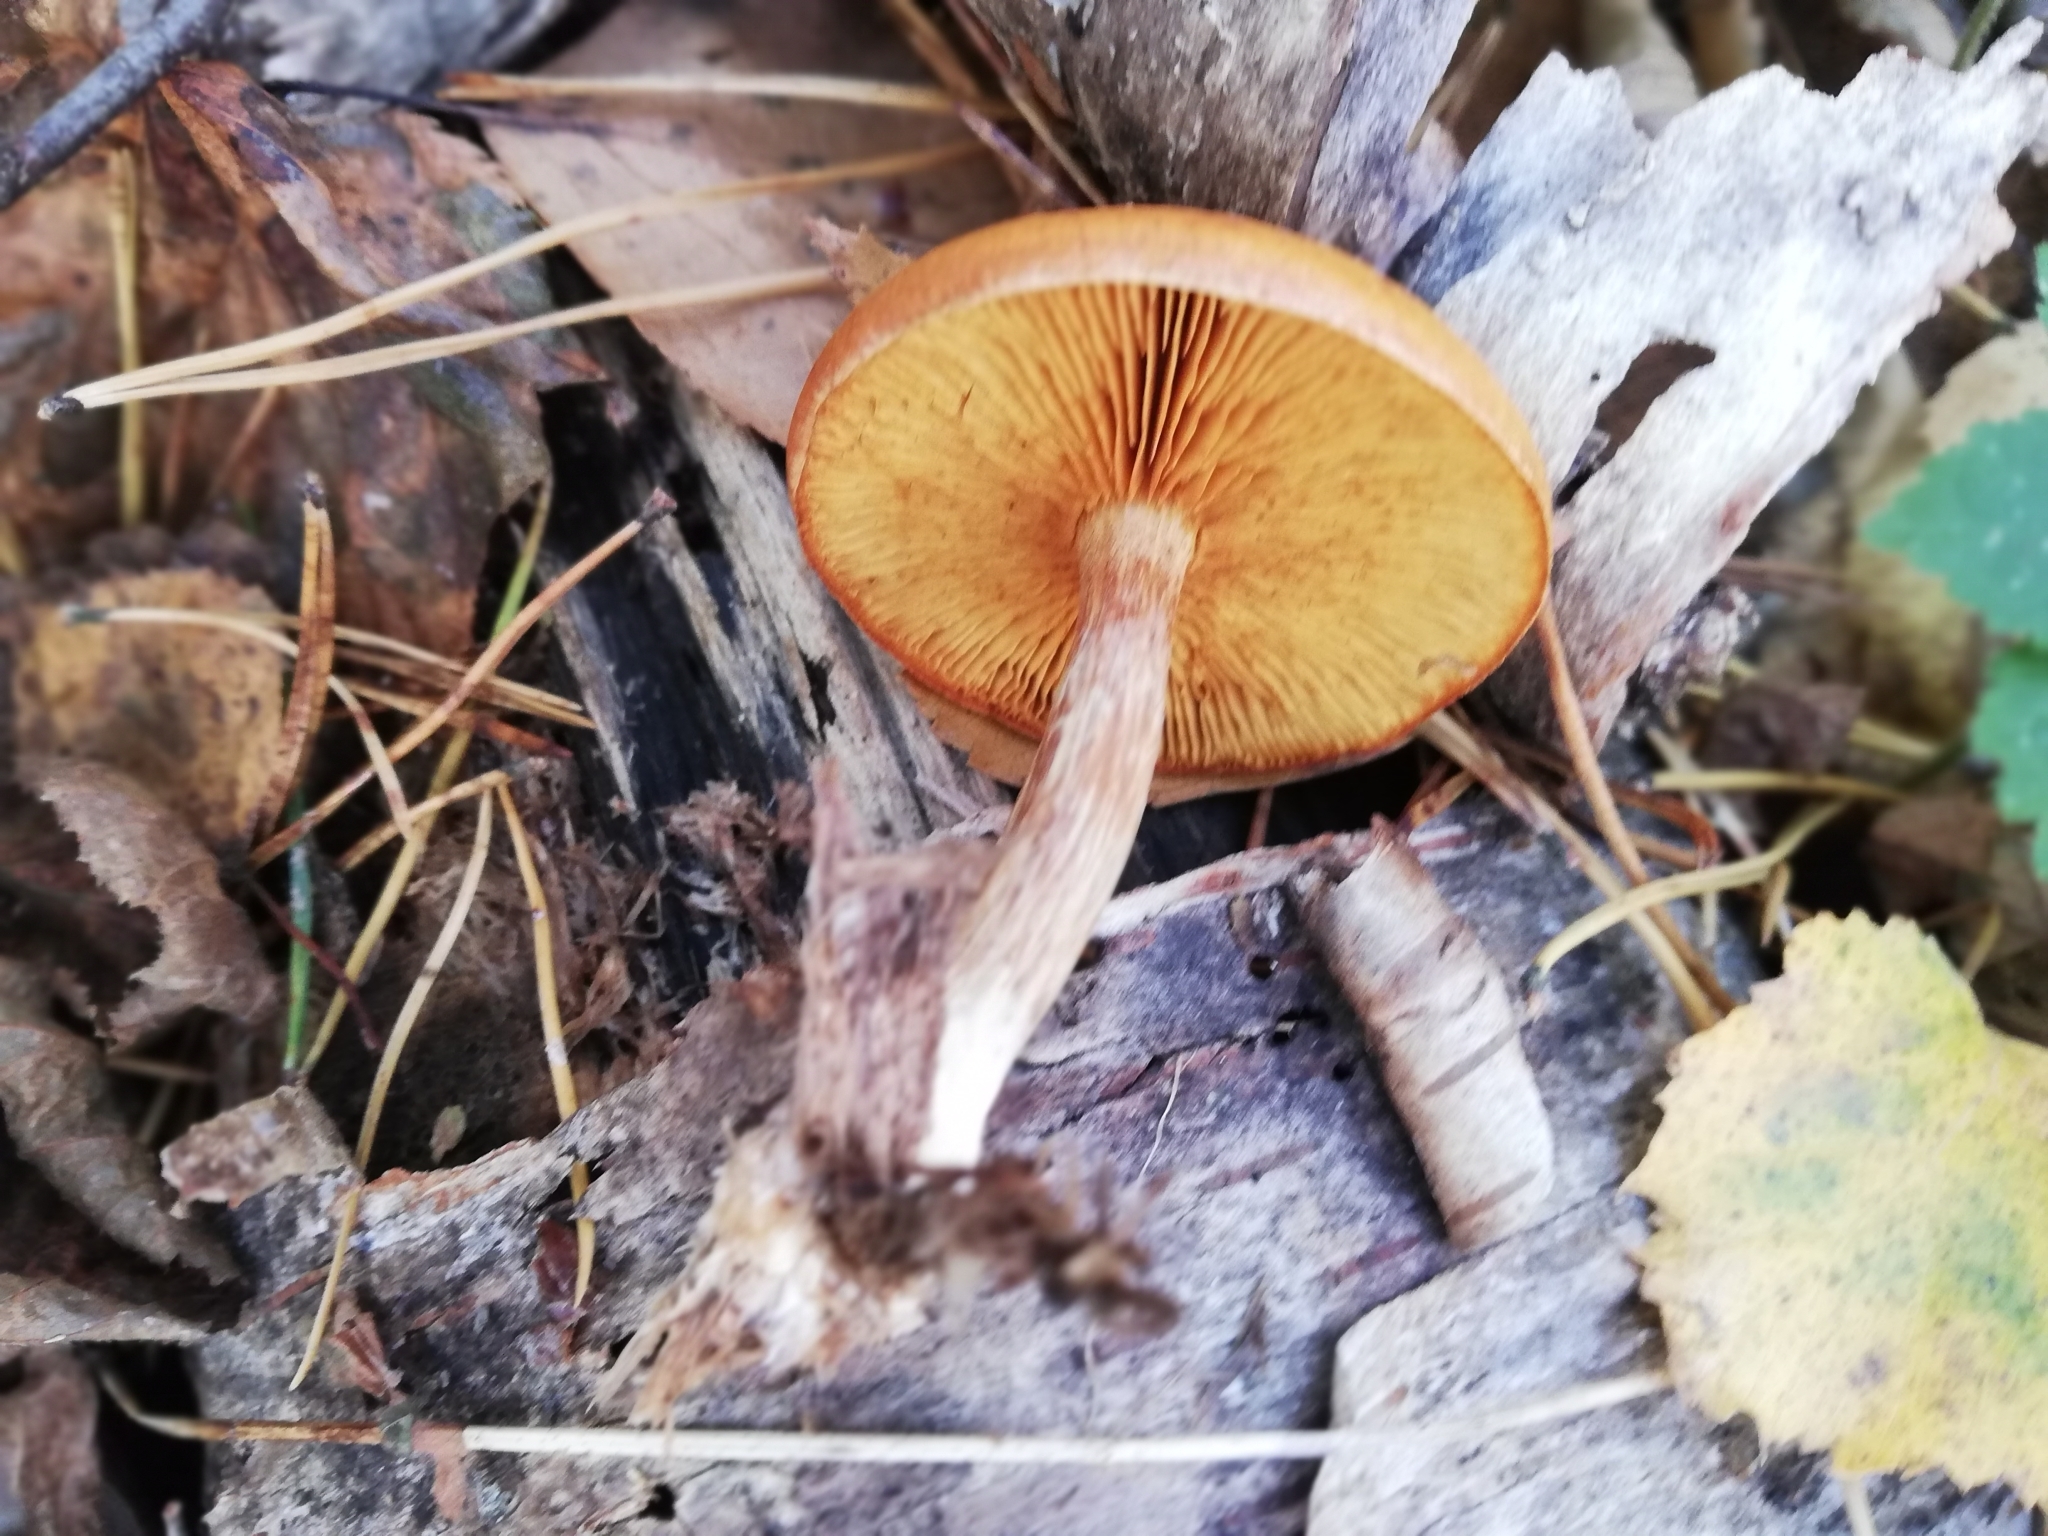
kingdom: Fungi
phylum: Basidiomycota
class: Agaricomycetes
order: Agaricales
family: Hymenogastraceae
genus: Gymnopilus
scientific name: Gymnopilus penetrans
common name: Common rustgill
